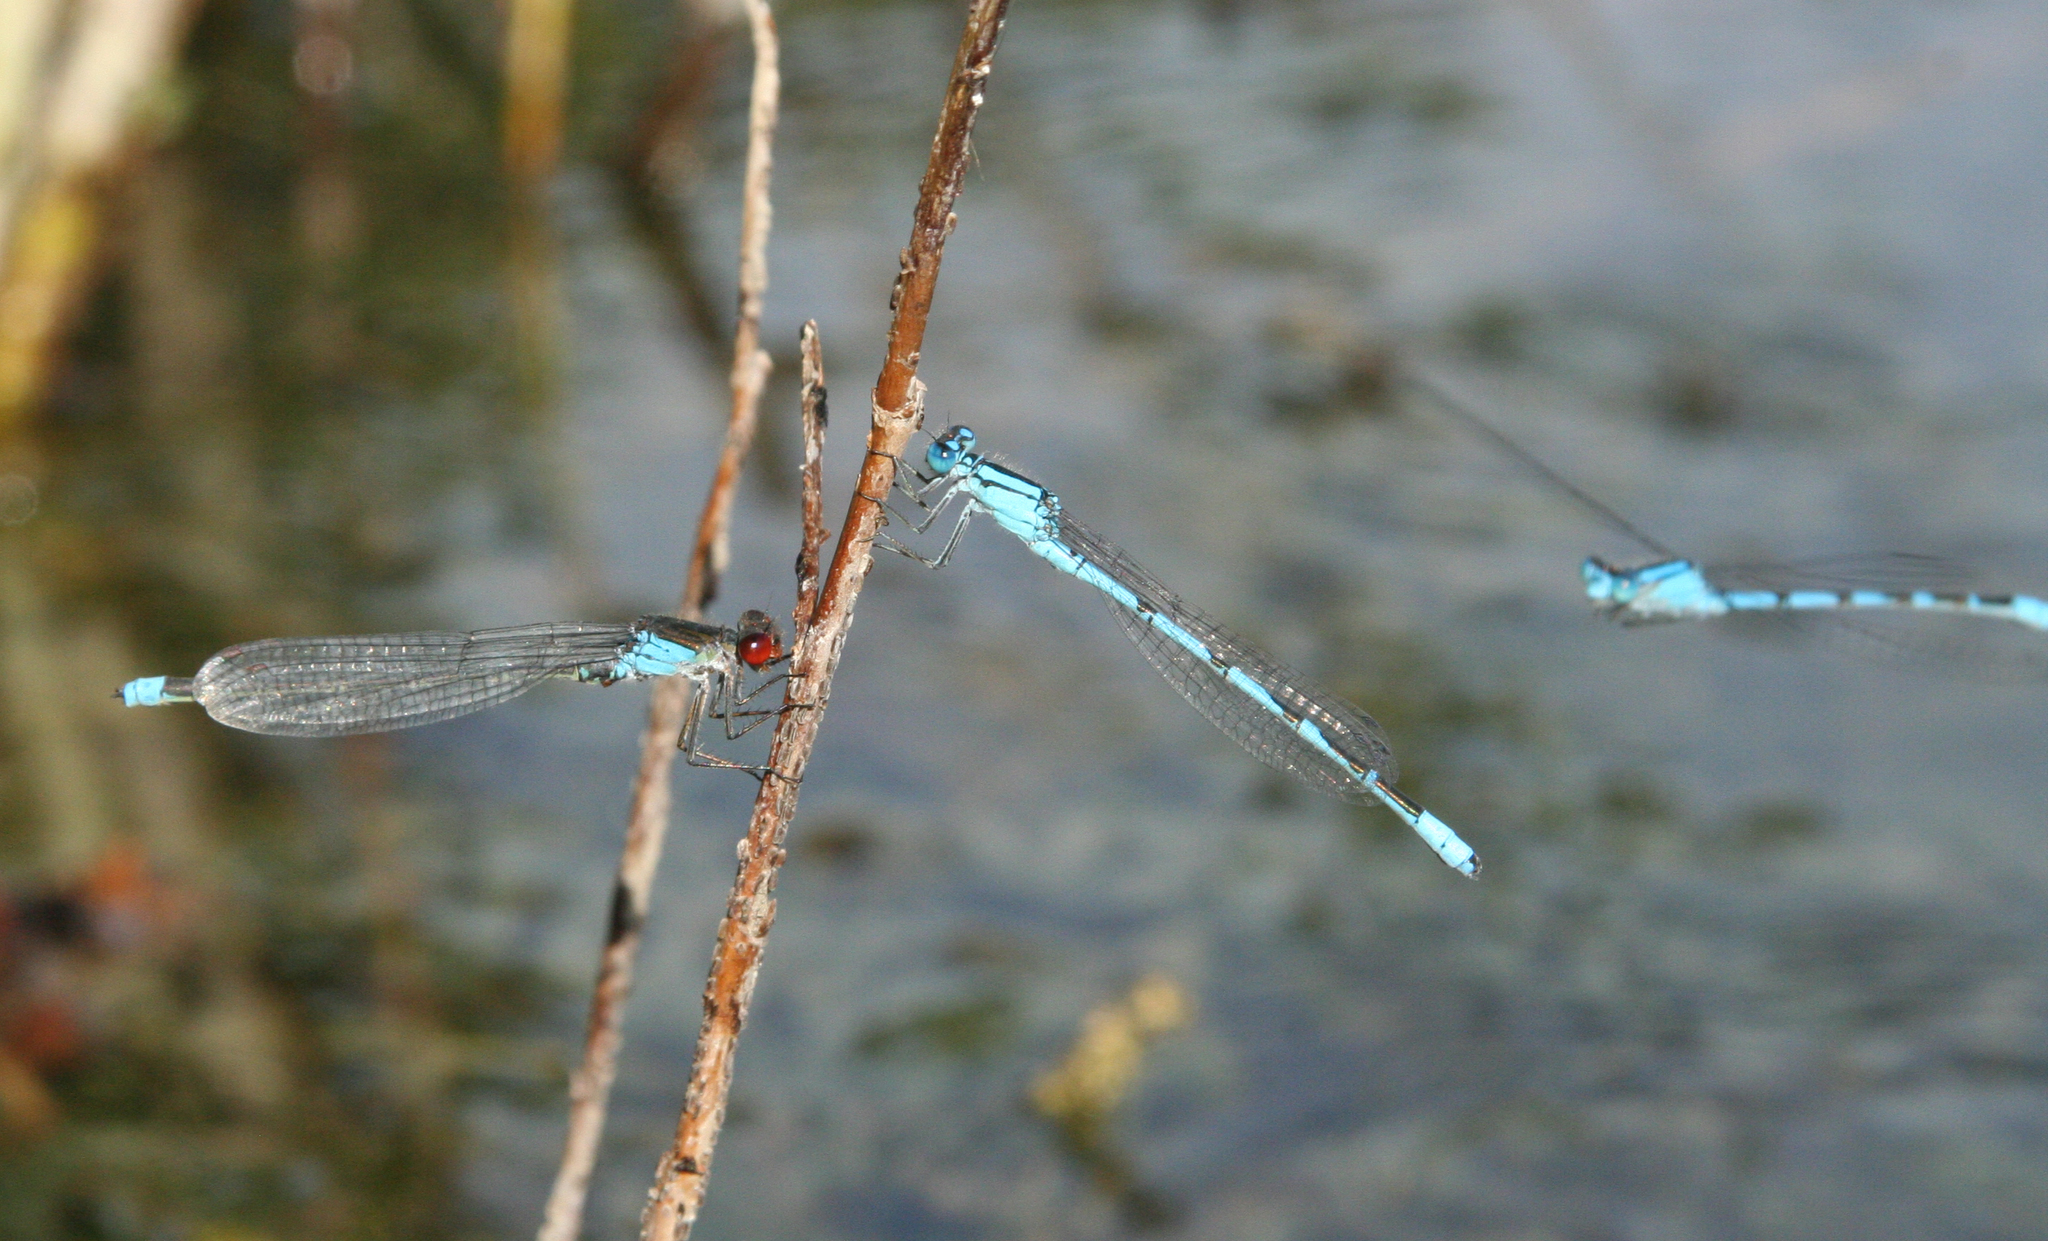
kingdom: Animalia
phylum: Arthropoda
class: Insecta
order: Odonata
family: Coenagrionidae
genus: Enallagma
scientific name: Enallagma cyathigerum
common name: Common blue damselfly
